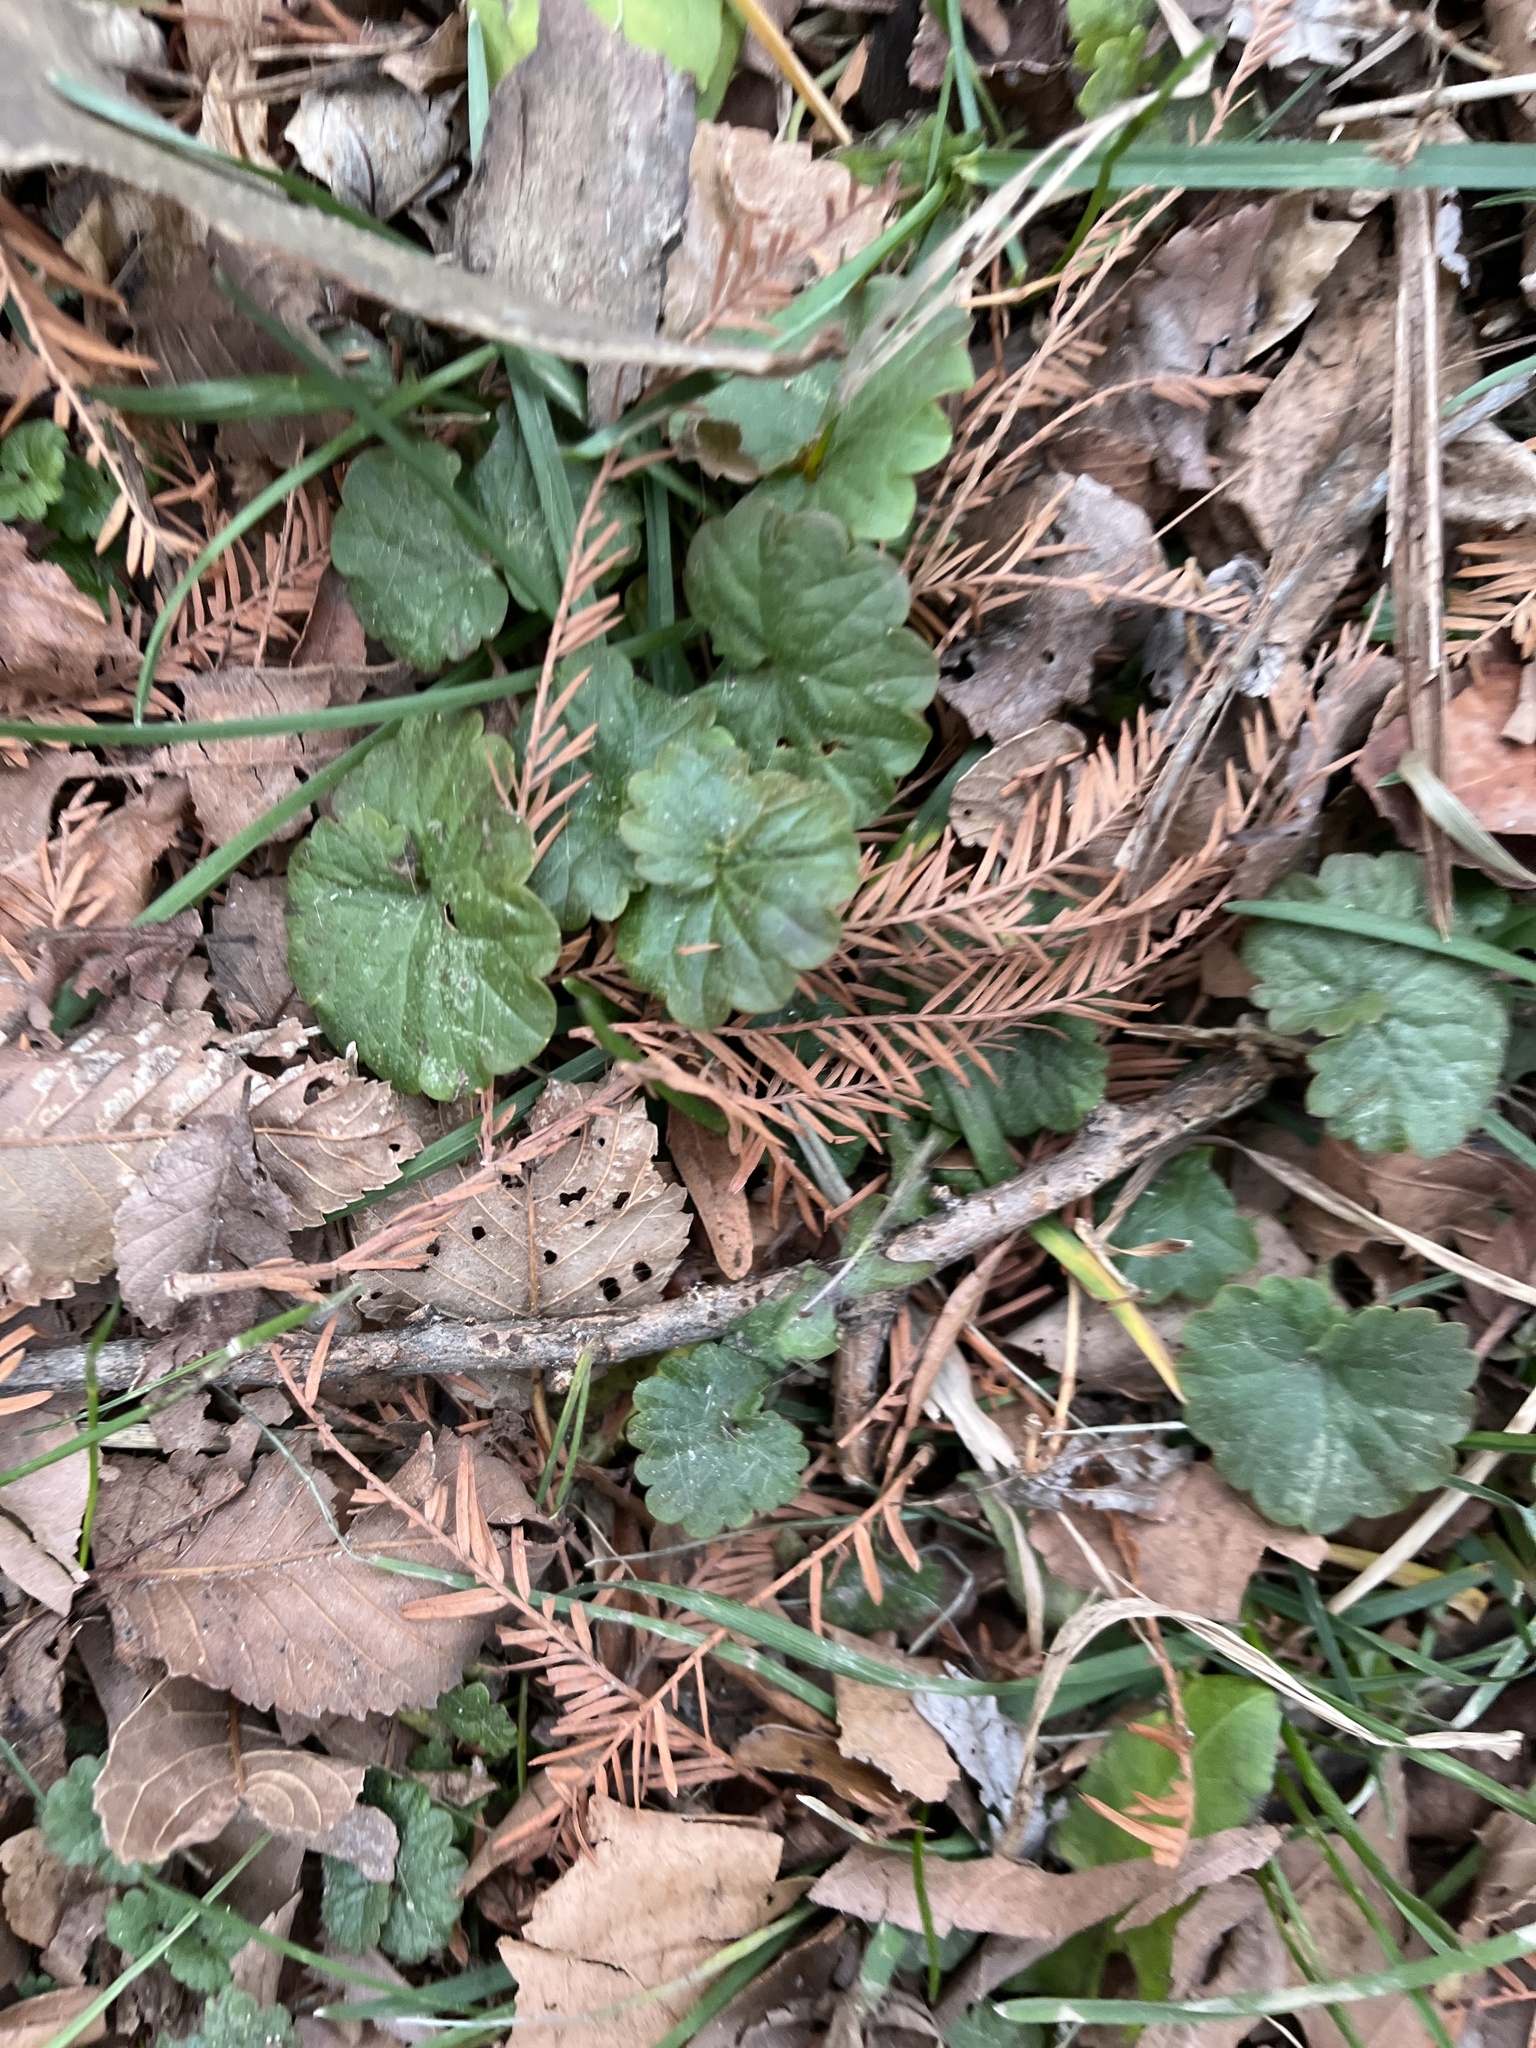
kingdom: Plantae
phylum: Tracheophyta
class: Magnoliopsida
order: Lamiales
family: Lamiaceae
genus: Glechoma
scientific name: Glechoma hederacea
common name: Ground ivy
